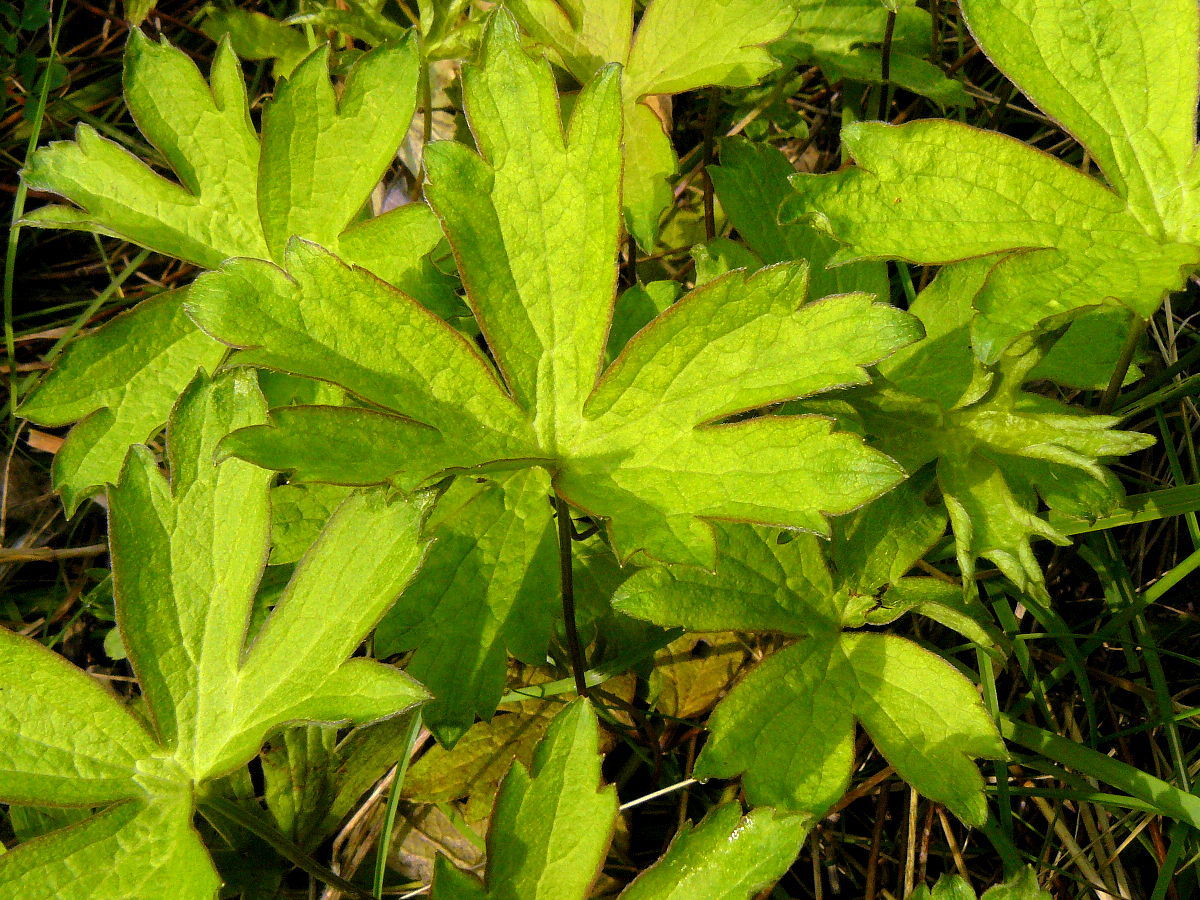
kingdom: Plantae
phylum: Tracheophyta
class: Magnoliopsida
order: Ranunculales
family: Ranunculaceae
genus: Anemonastrum
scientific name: Anemonastrum canadense
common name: Canada anemone
